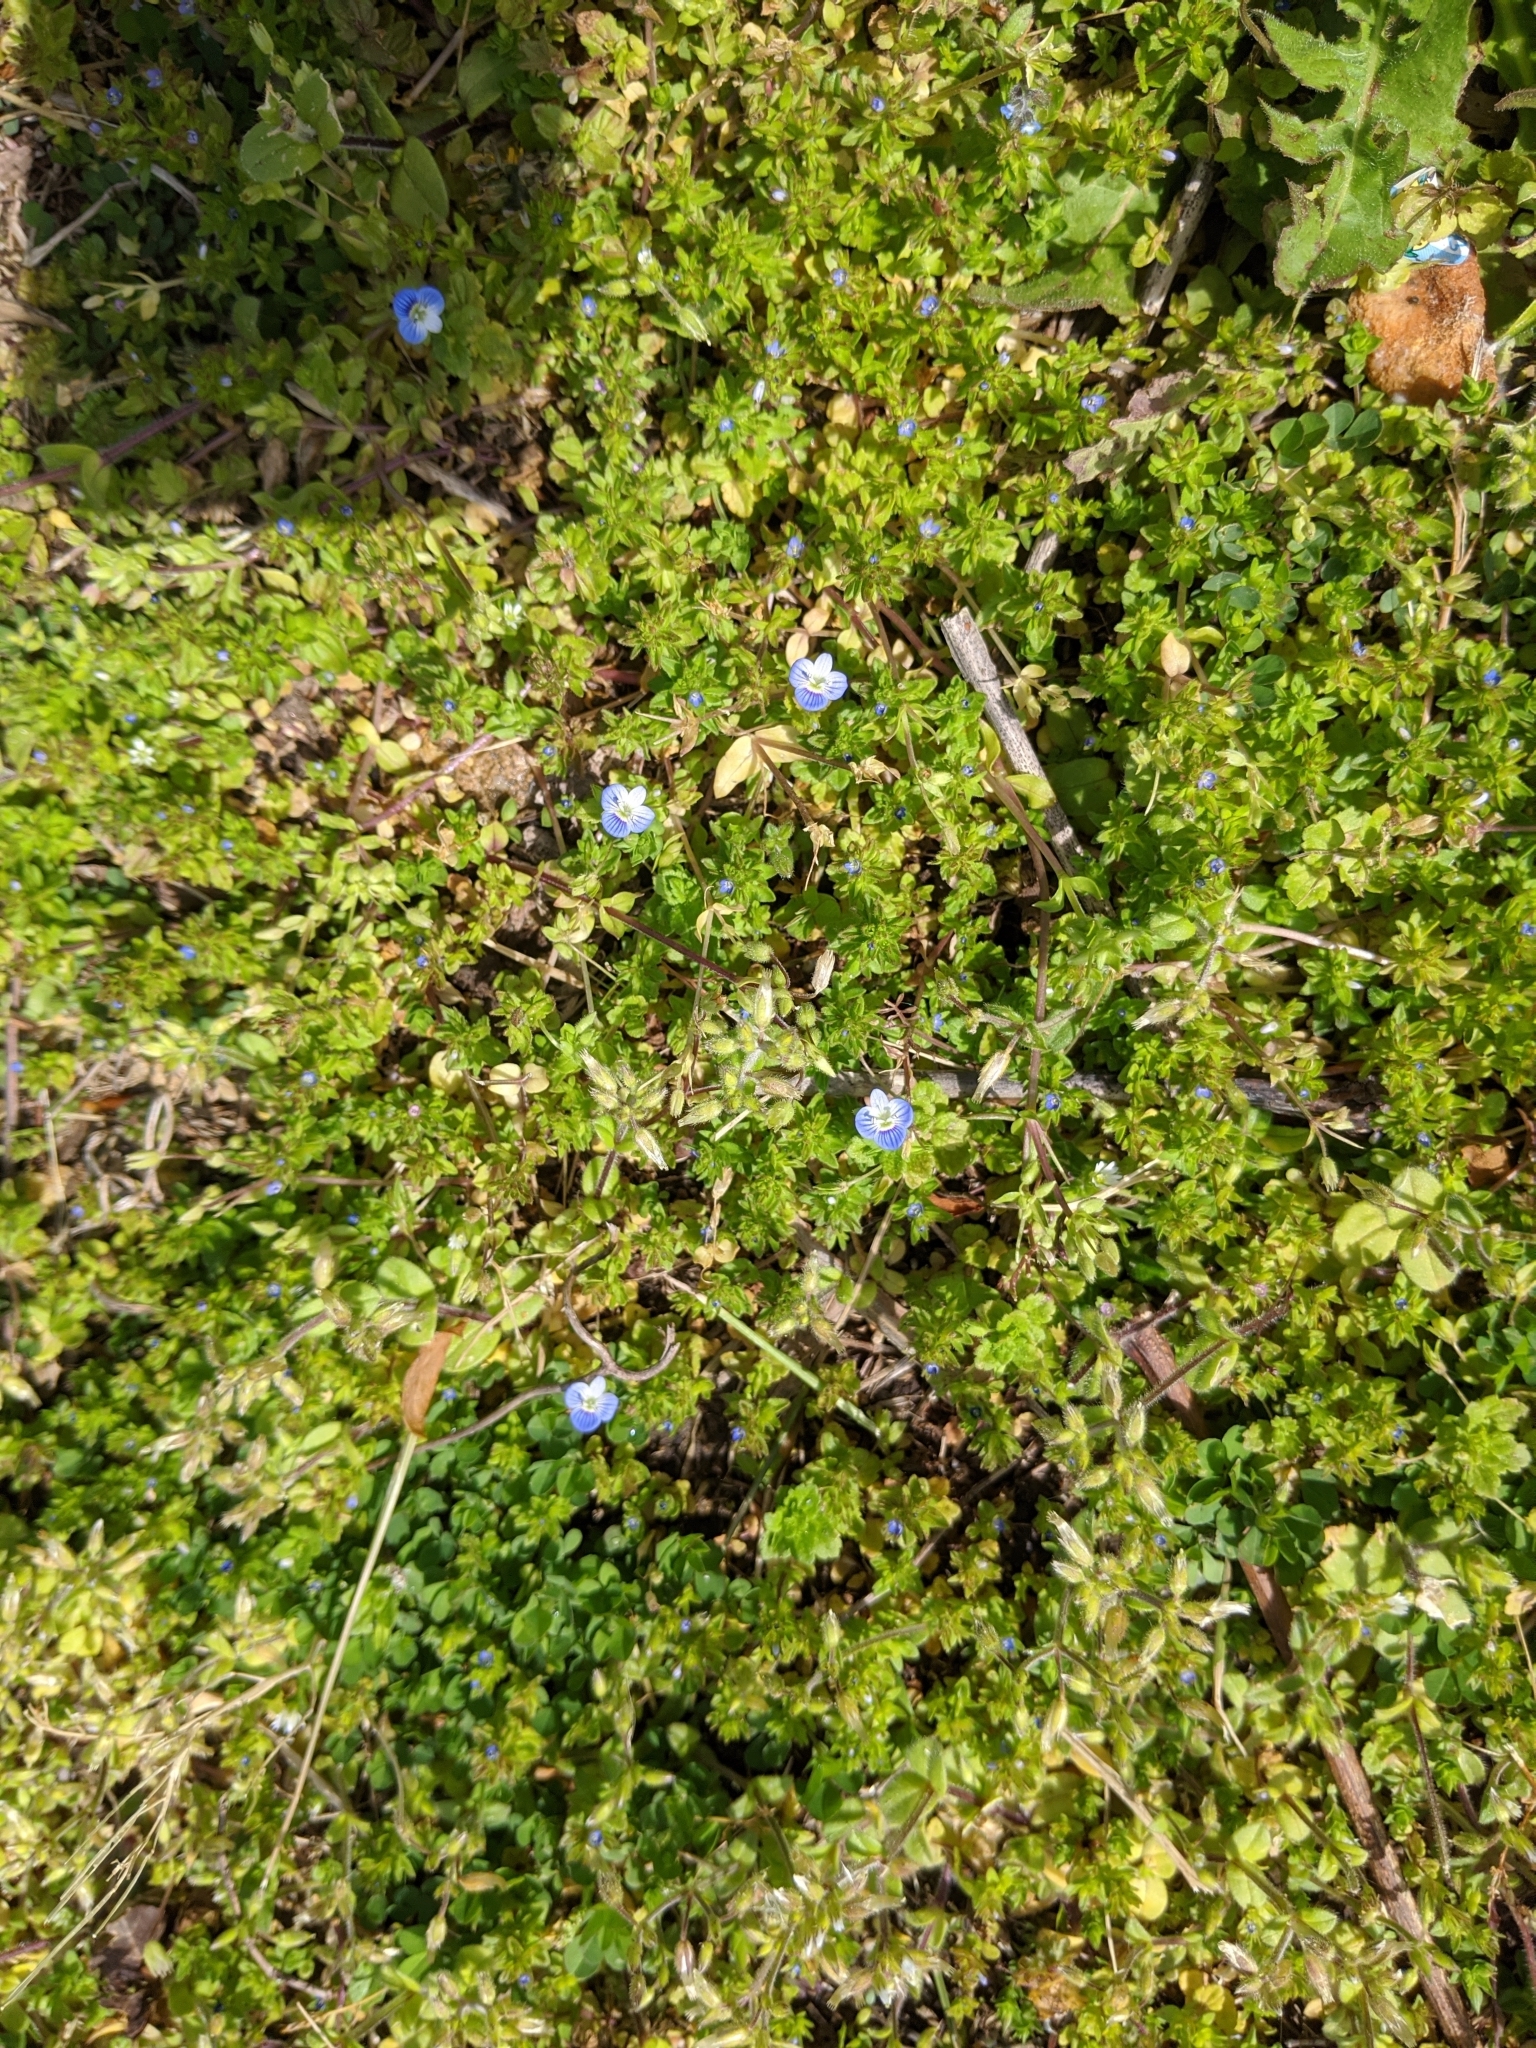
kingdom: Plantae
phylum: Tracheophyta
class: Magnoliopsida
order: Lamiales
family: Plantaginaceae
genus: Veronica
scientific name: Veronica persica
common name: Common field-speedwell
